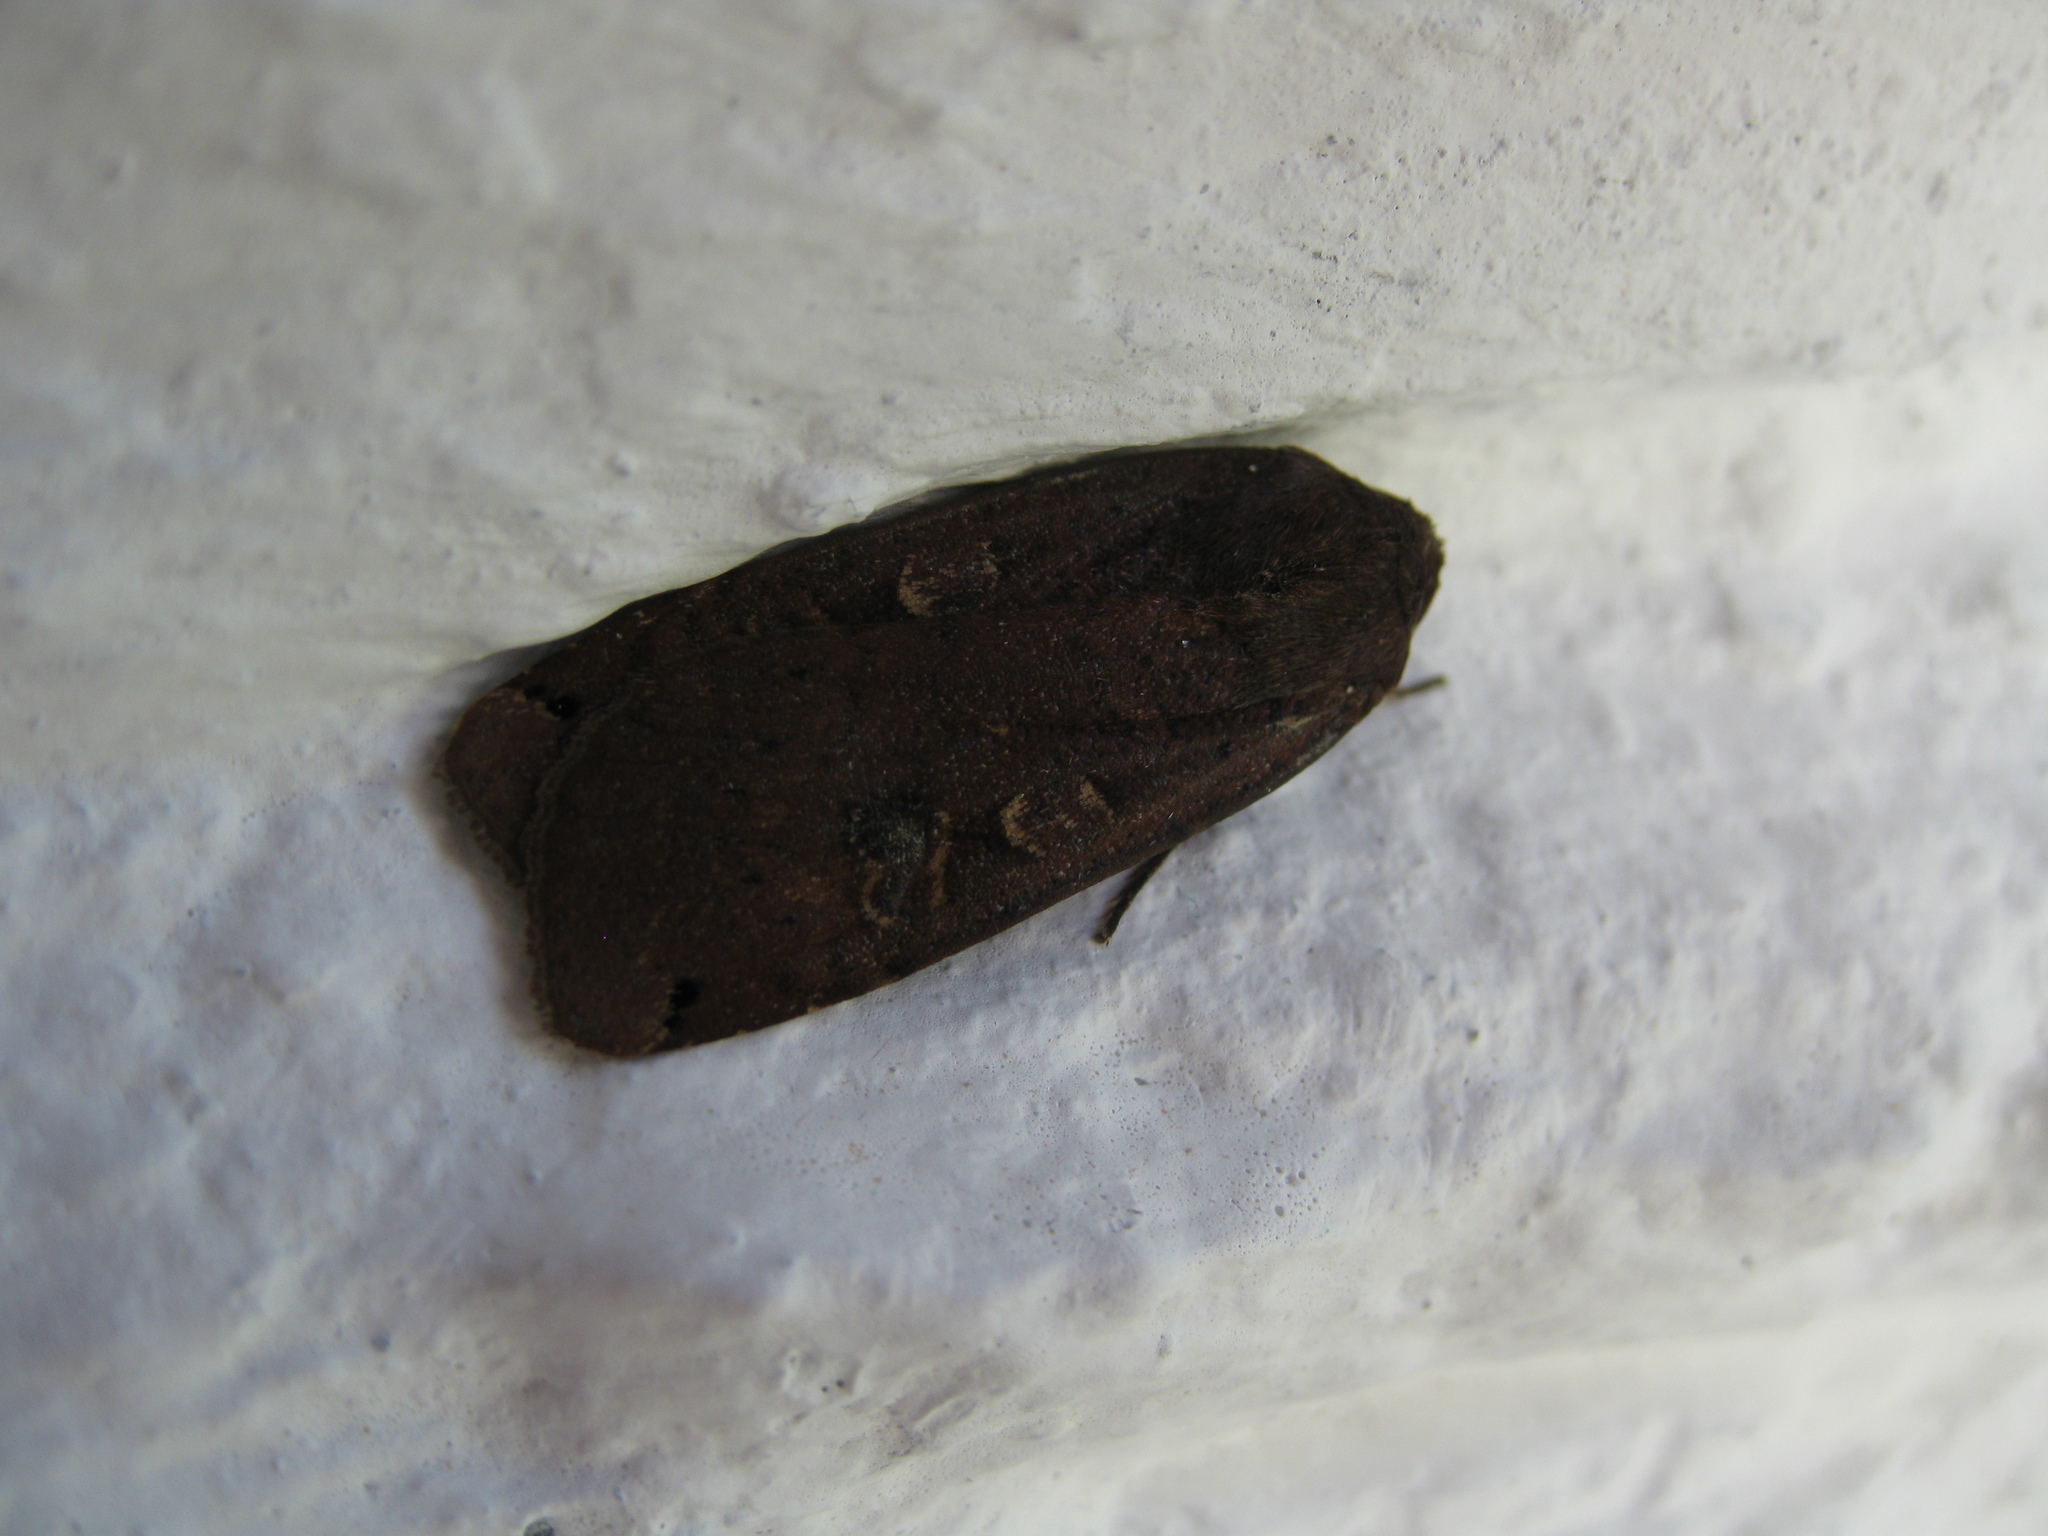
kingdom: Animalia
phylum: Arthropoda
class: Insecta
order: Lepidoptera
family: Noctuidae
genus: Noctua
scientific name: Noctua pronuba
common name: Large yellow underwing
